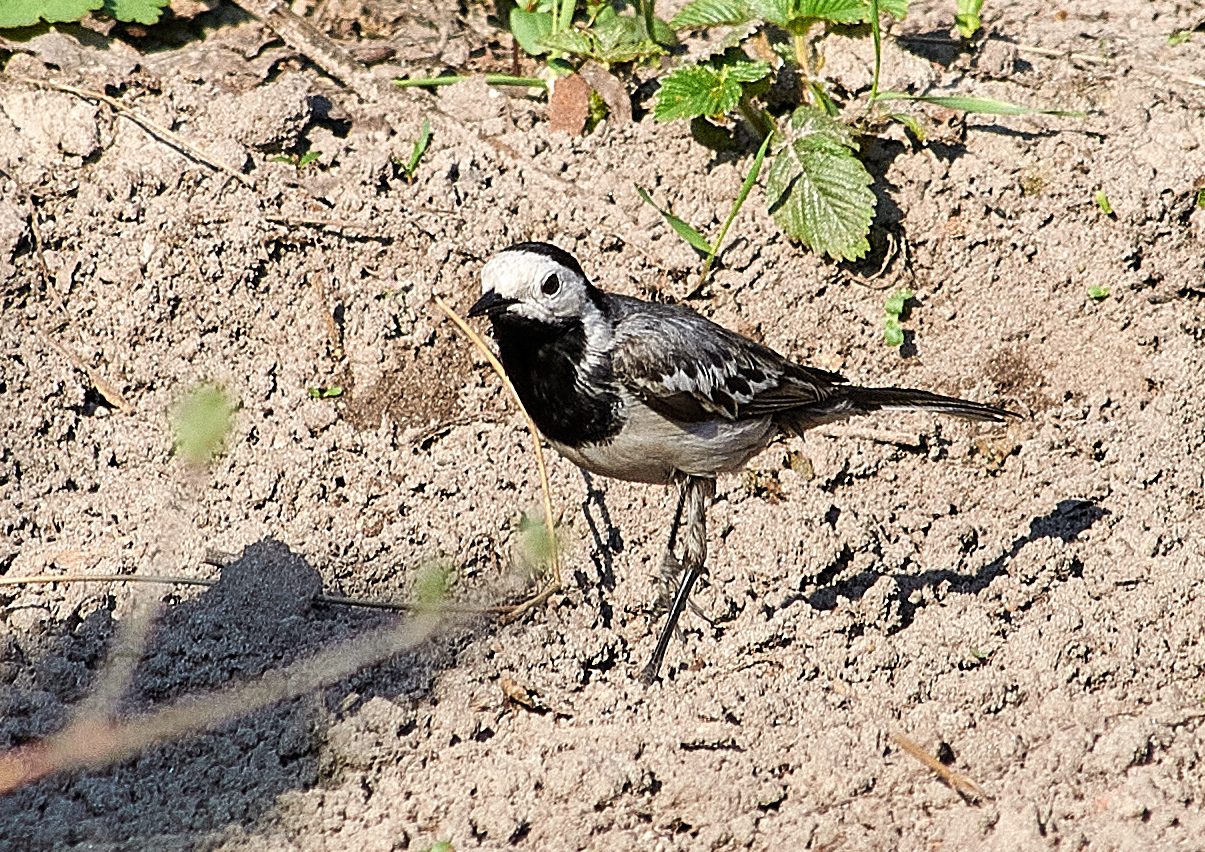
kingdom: Animalia
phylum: Chordata
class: Aves
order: Passeriformes
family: Motacillidae
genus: Motacilla
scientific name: Motacilla alba
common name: White wagtail
